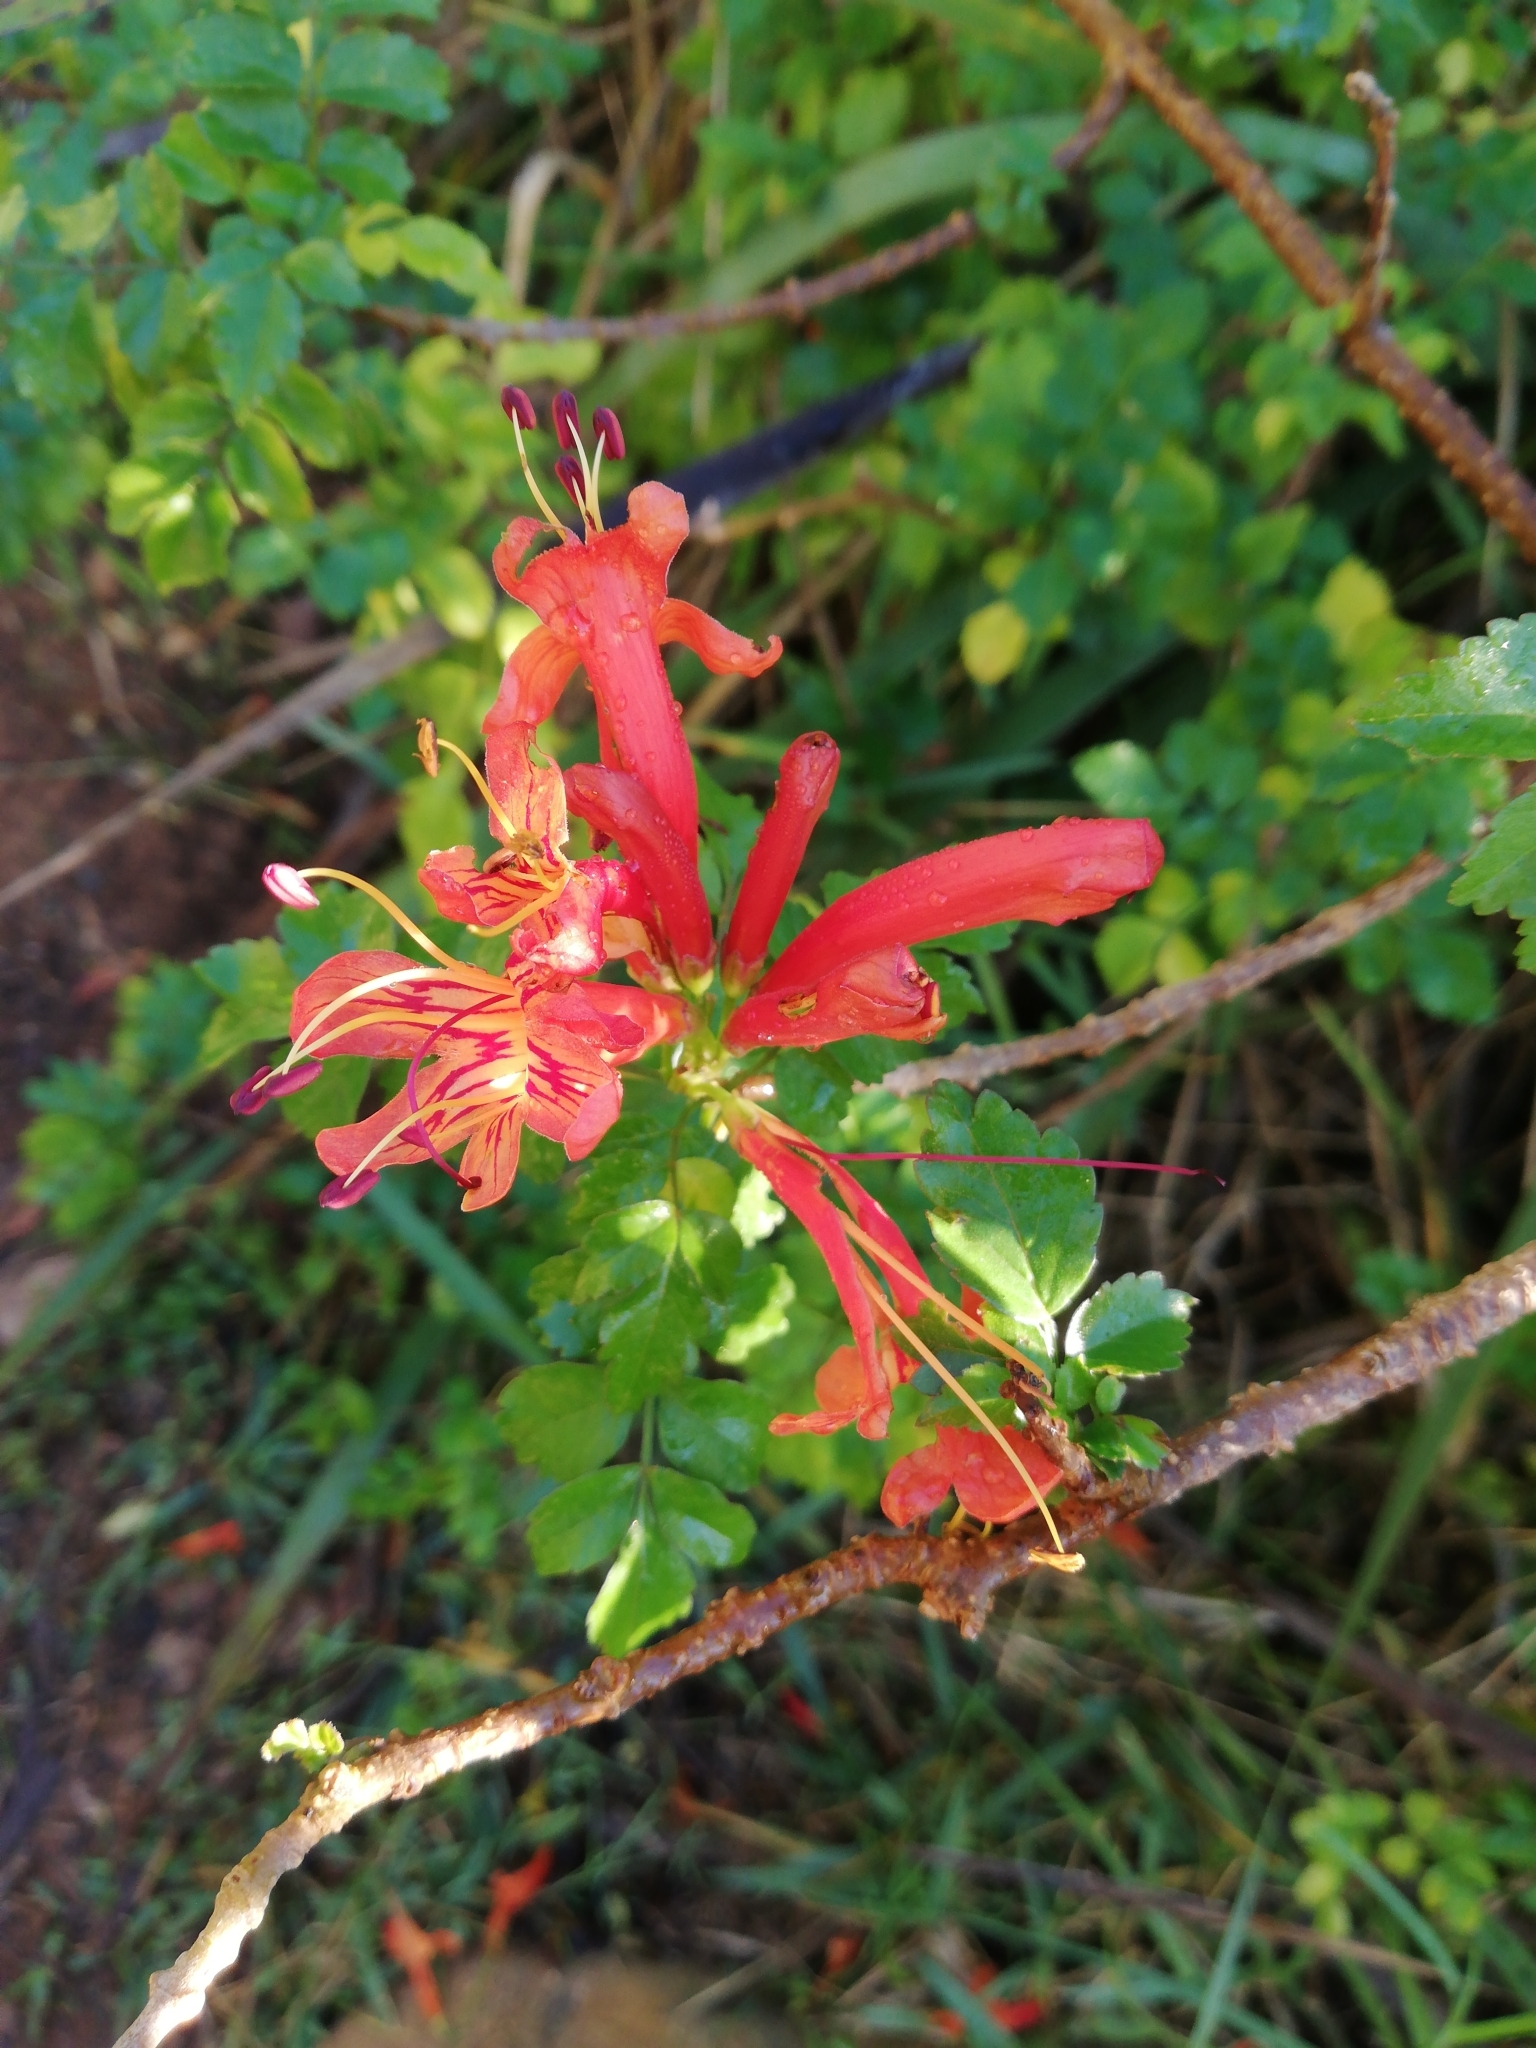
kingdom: Plantae
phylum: Tracheophyta
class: Magnoliopsida
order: Lamiales
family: Bignoniaceae
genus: Tecomaria
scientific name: Tecomaria capensis
